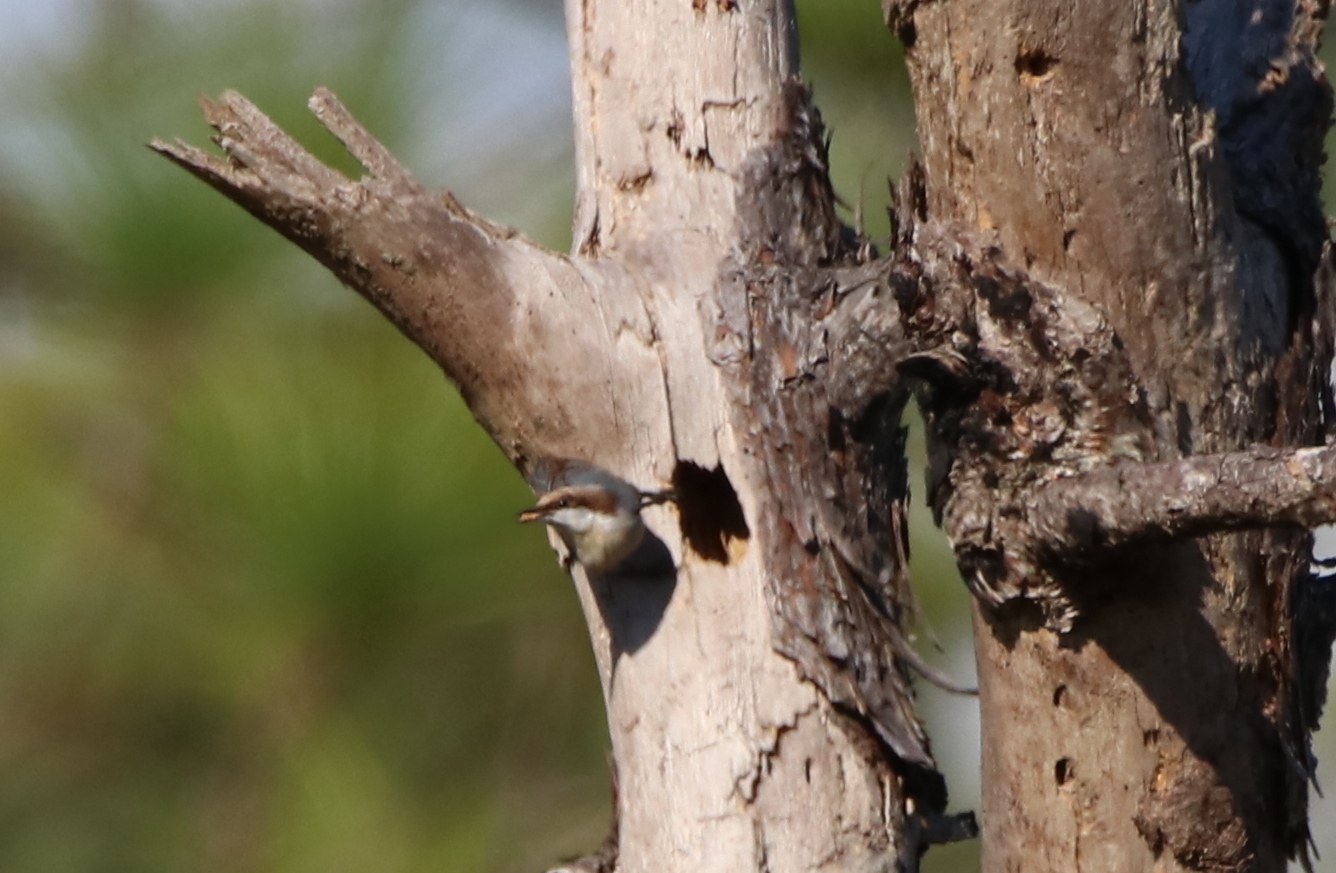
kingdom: Animalia
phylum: Chordata
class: Aves
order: Passeriformes
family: Sittidae
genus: Sitta
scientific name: Sitta pusilla
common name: Brown-headed nuthatch
